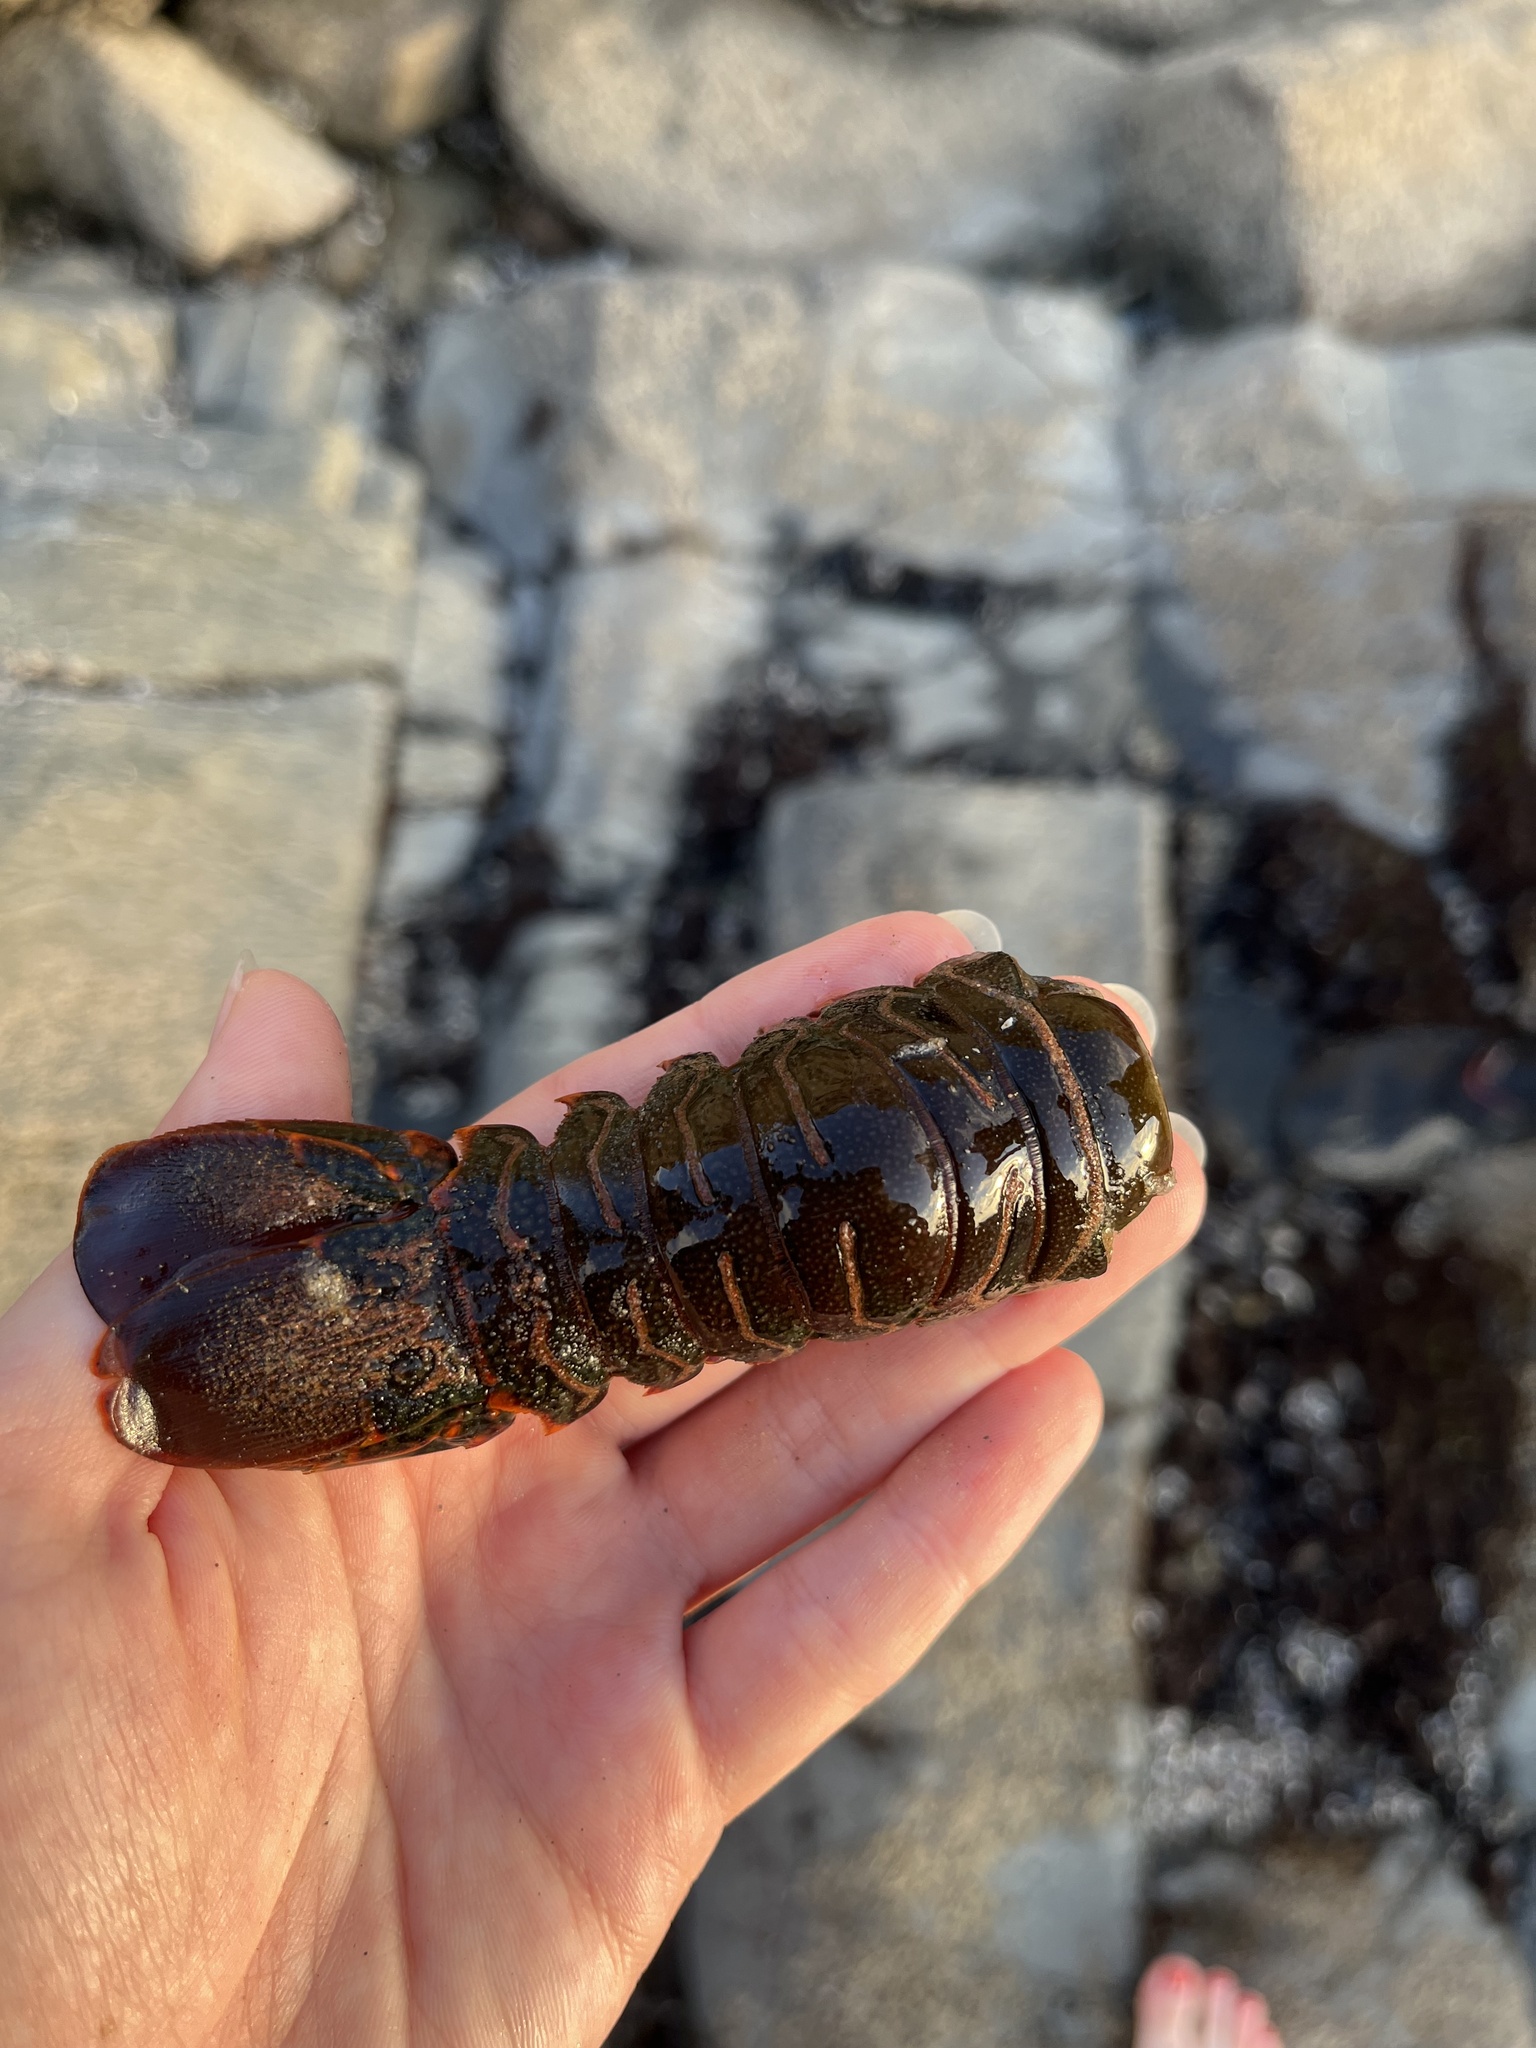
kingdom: Animalia
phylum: Arthropoda
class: Malacostraca
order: Decapoda
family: Palinuridae
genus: Panulirus
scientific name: Panulirus interruptus
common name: California spiny lobster
